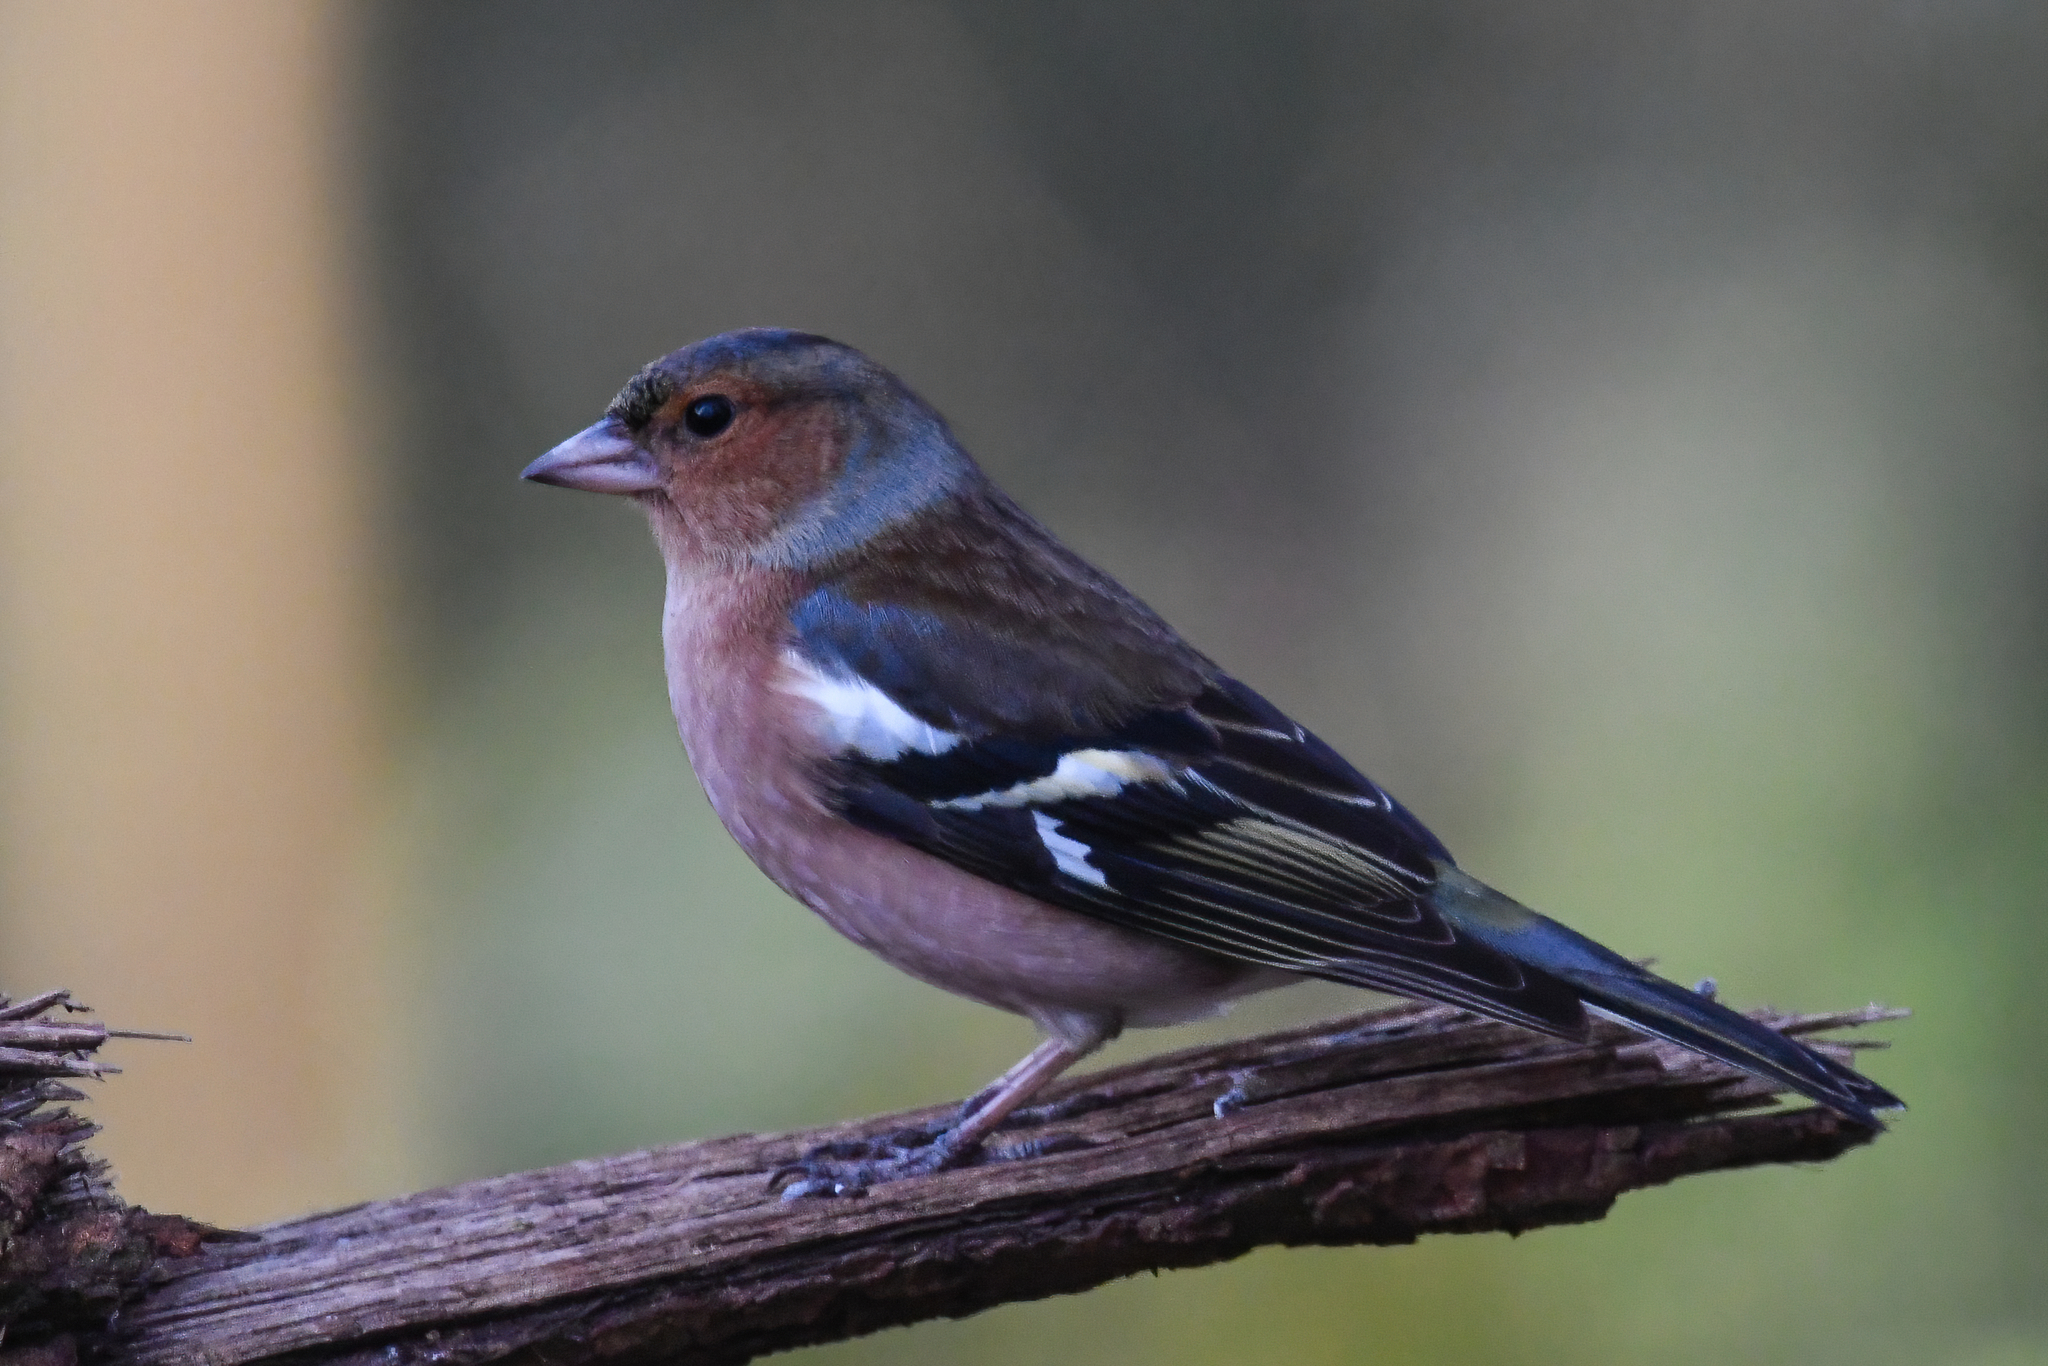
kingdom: Animalia
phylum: Chordata
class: Aves
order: Passeriformes
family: Fringillidae
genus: Fringilla
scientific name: Fringilla coelebs
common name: Common chaffinch
